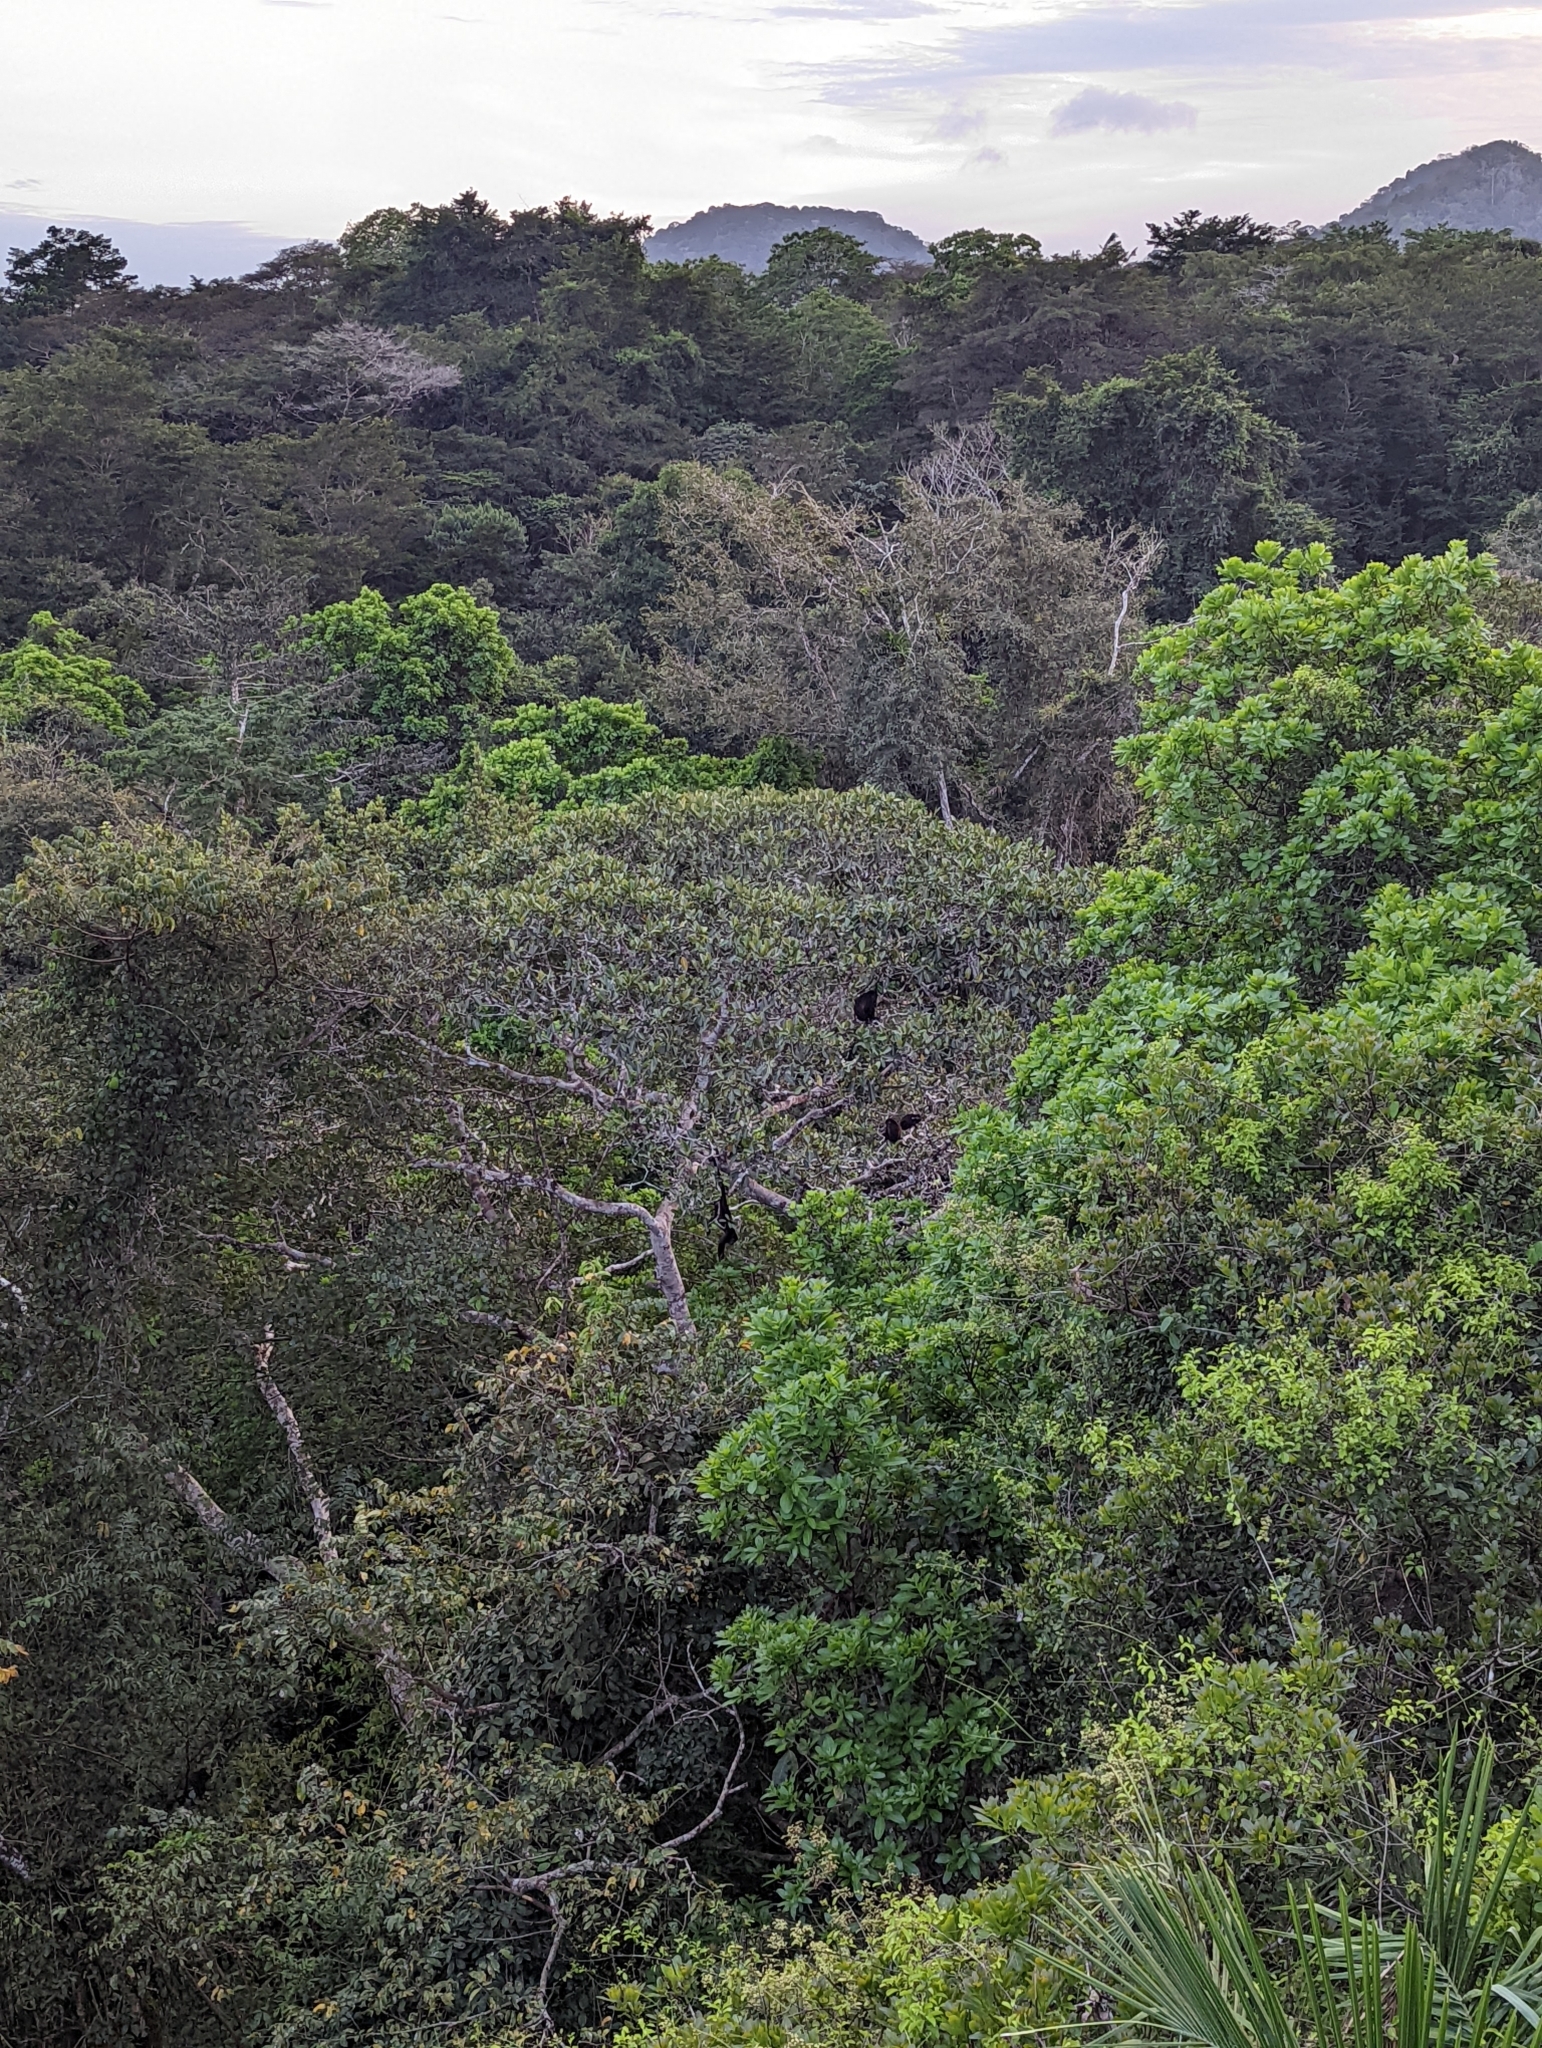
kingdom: Animalia
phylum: Chordata
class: Mammalia
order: Primates
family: Atelidae
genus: Alouatta
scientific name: Alouatta palliata
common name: Mantled howler
